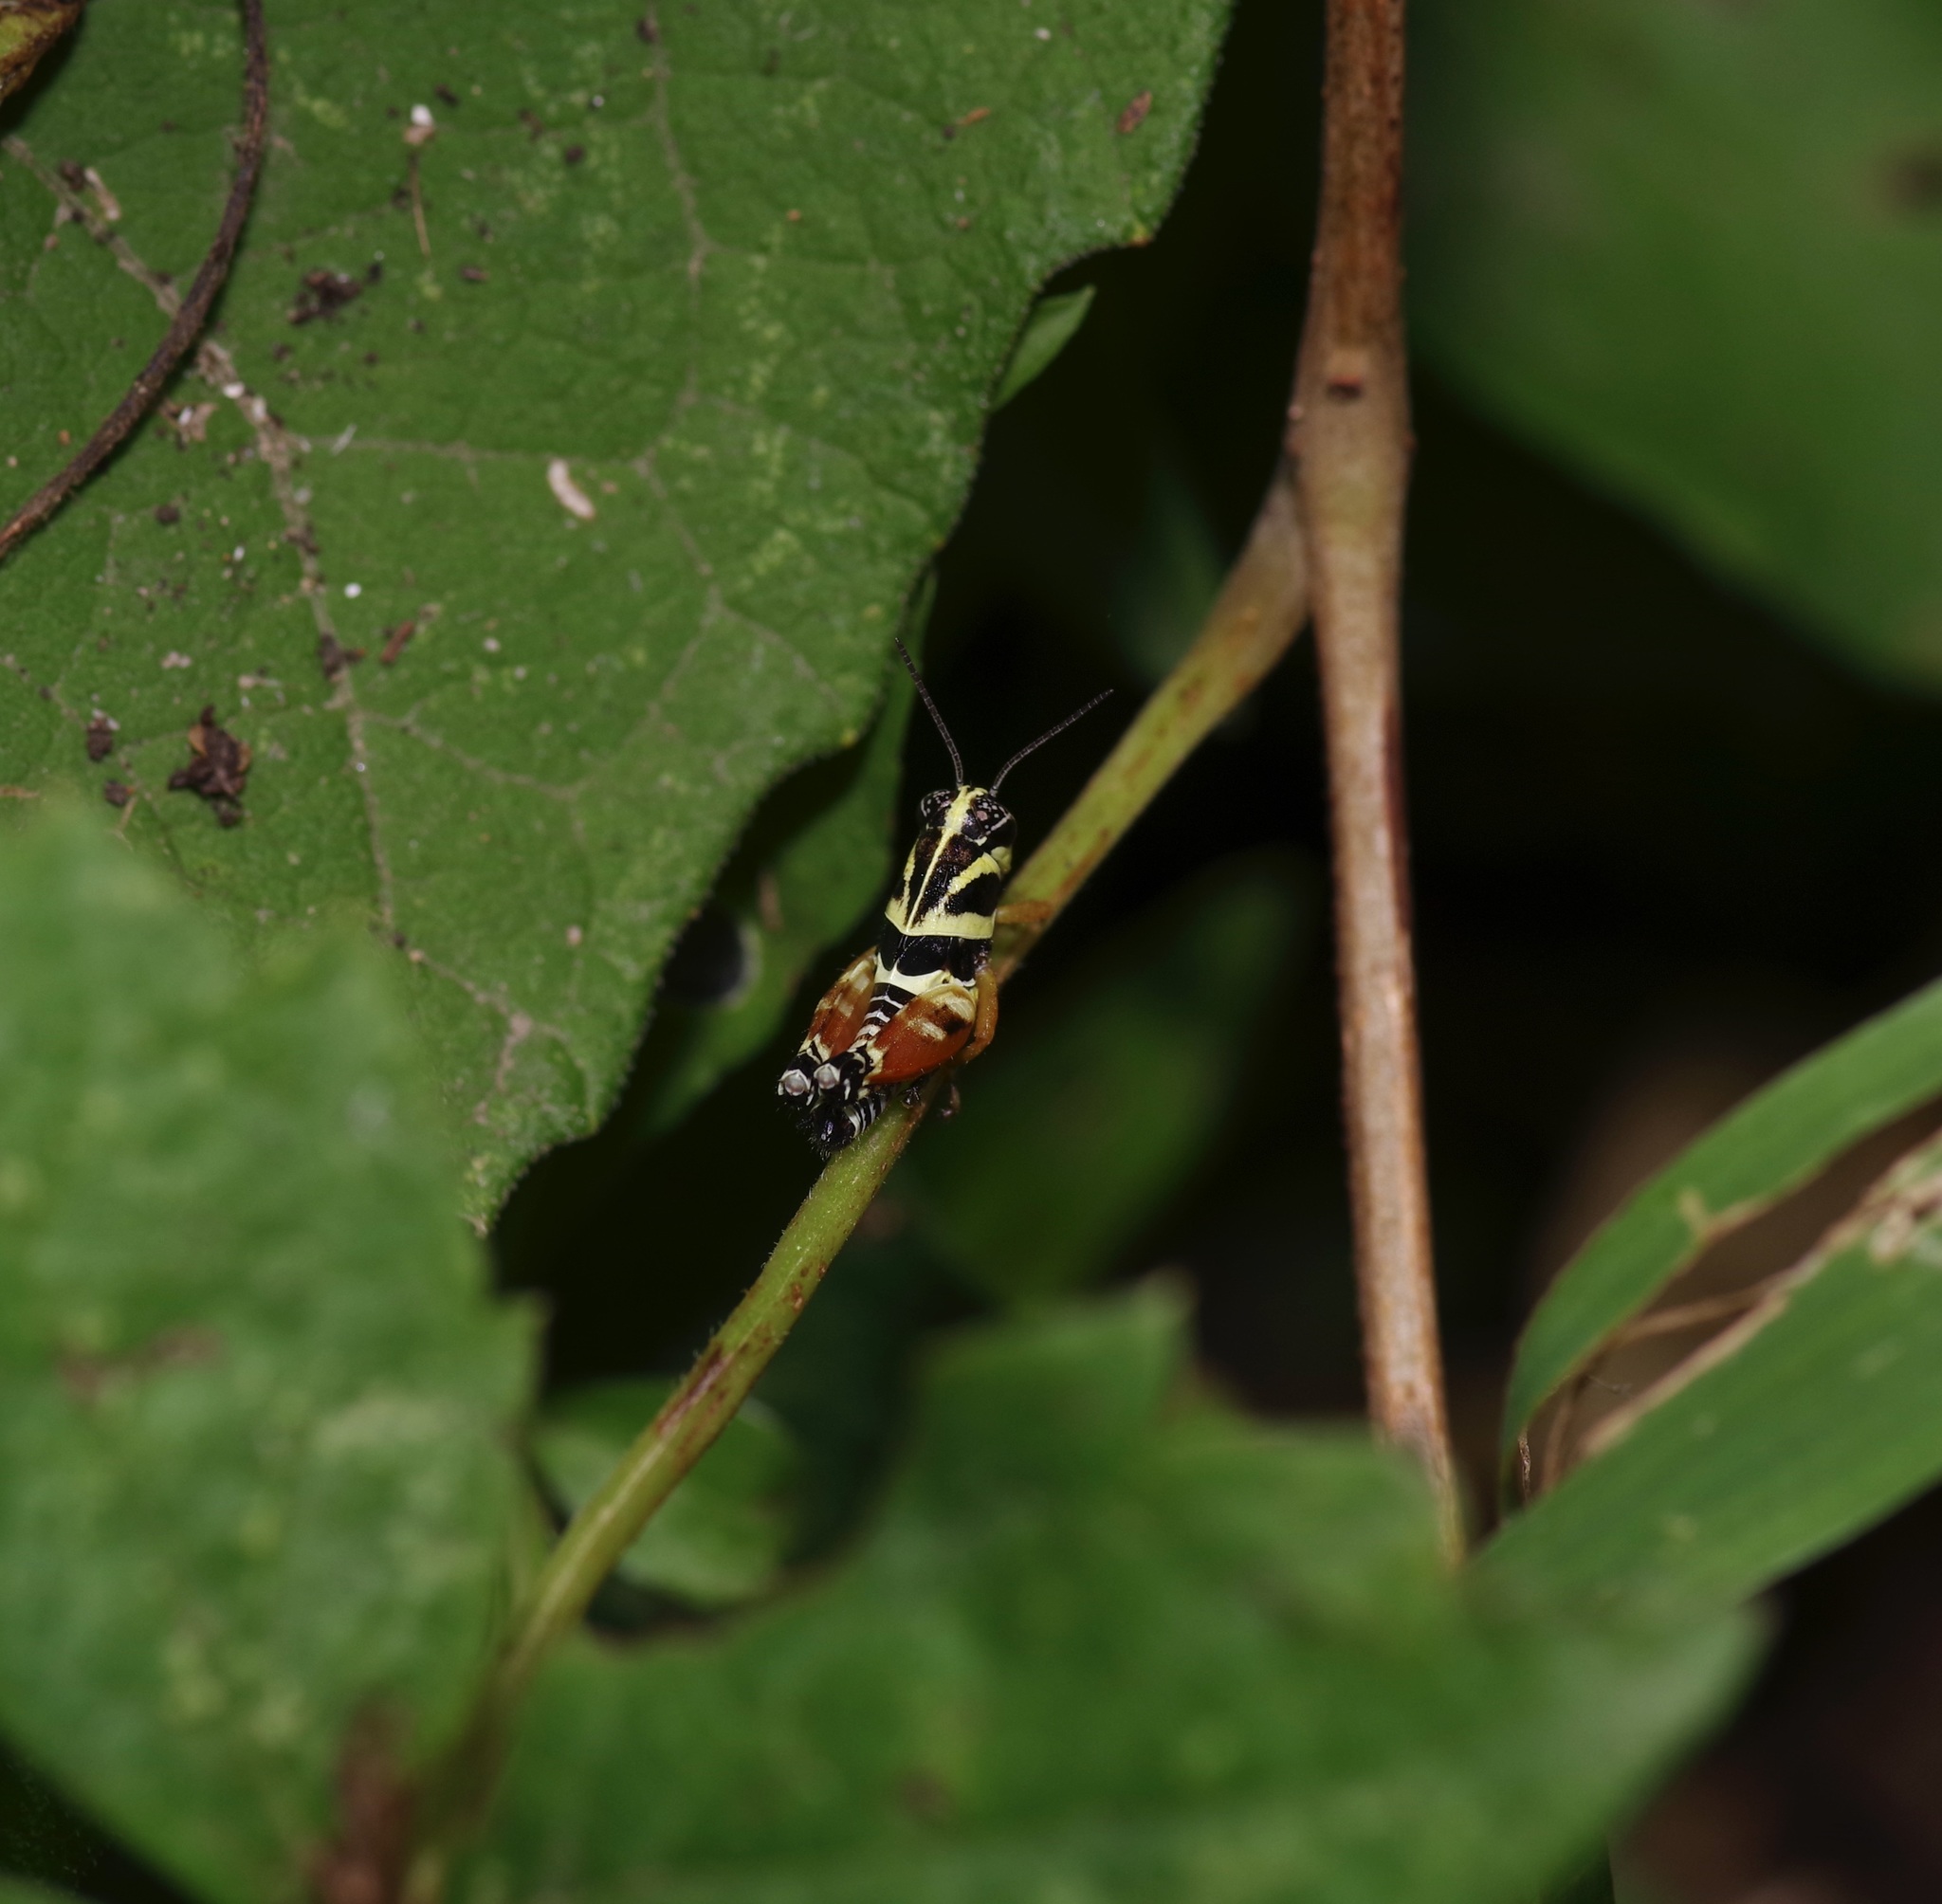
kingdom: Animalia
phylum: Arthropoda
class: Insecta
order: Orthoptera
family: Acrididae
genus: Aidemona
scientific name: Aidemona azteca
